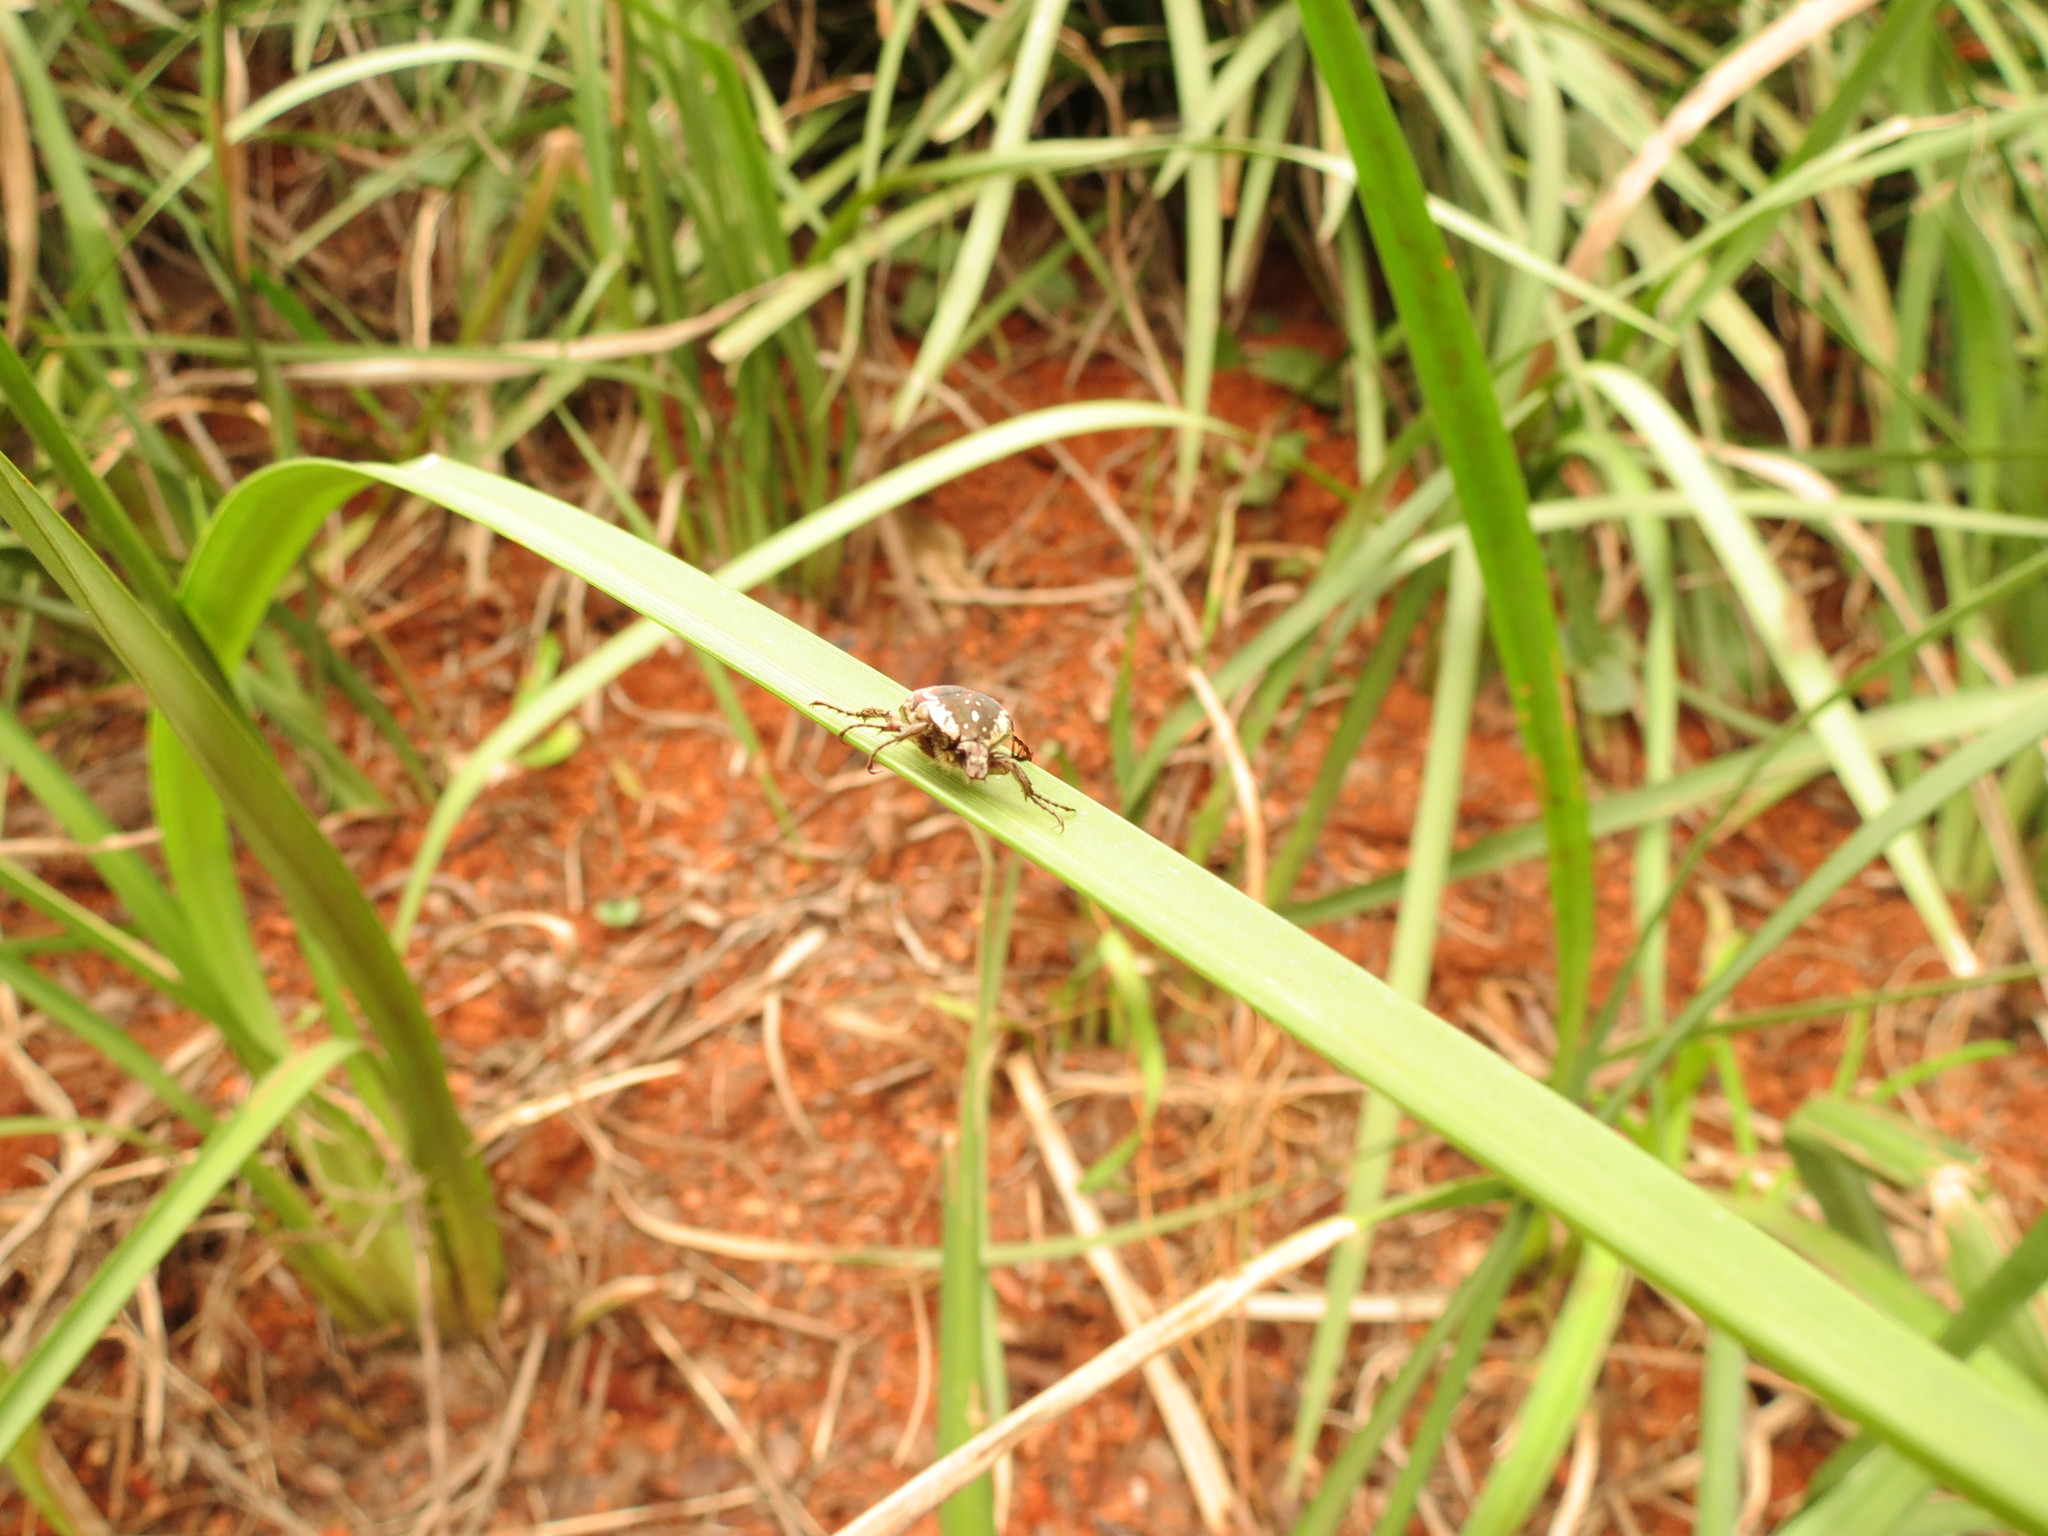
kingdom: Animalia
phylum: Arthropoda
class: Insecta
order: Coleoptera
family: Scarabaeidae
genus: Elaphinis
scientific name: Elaphinis irrorata
